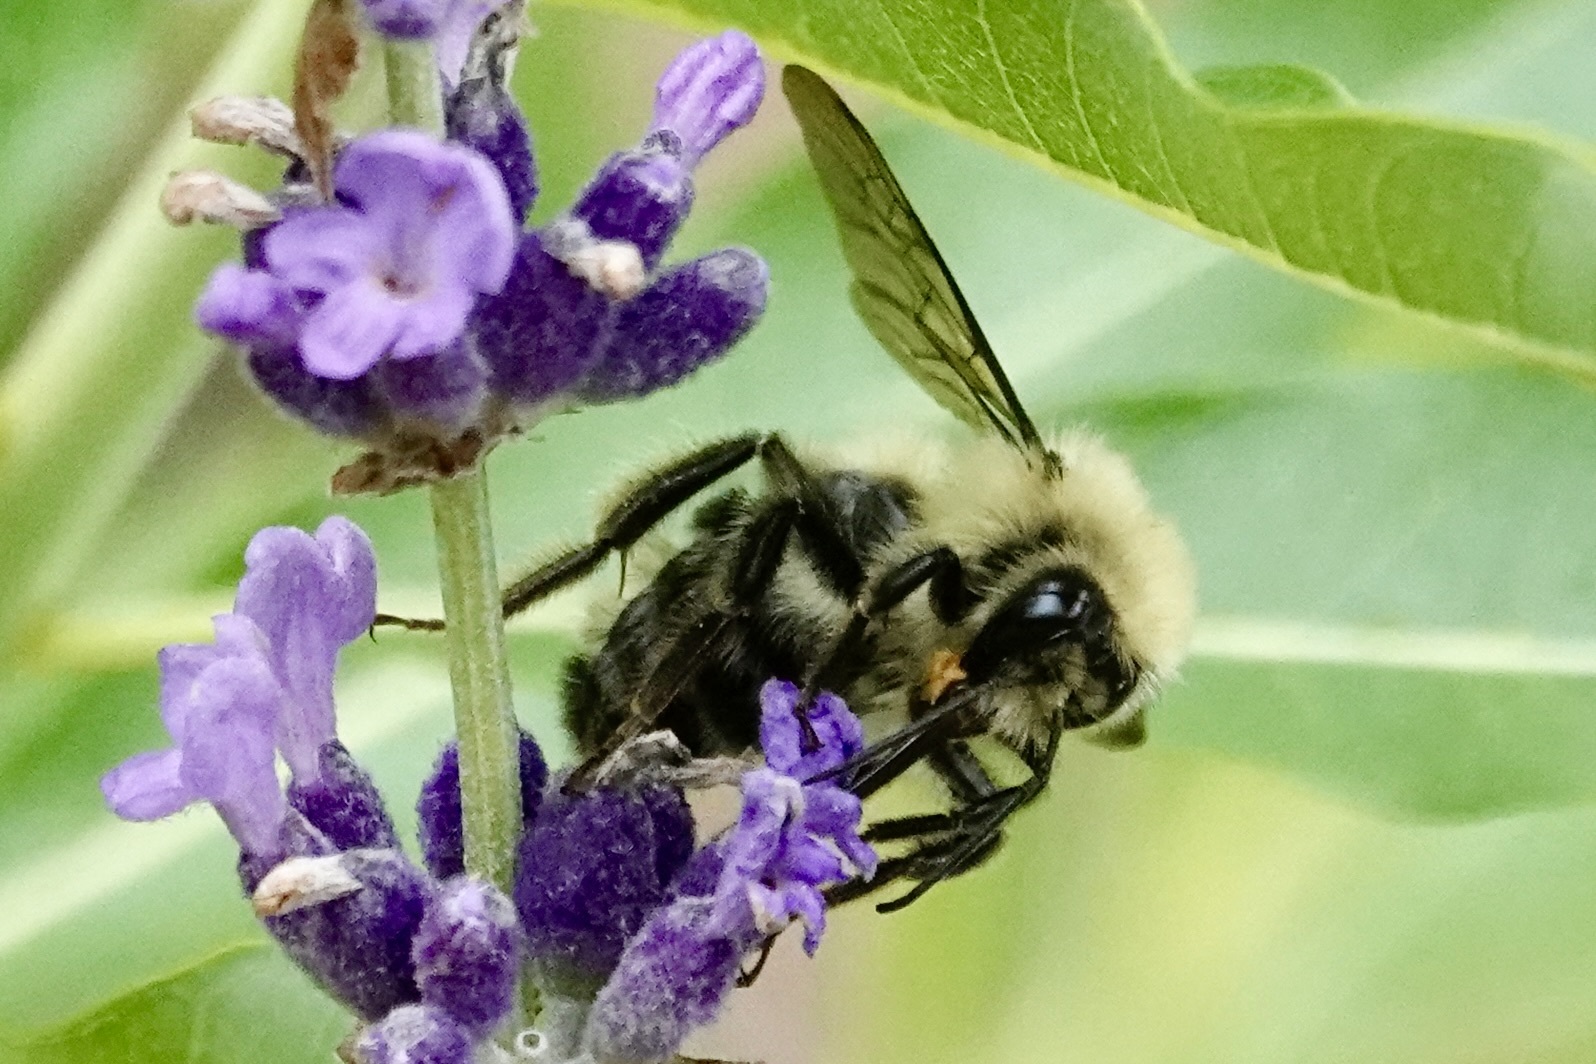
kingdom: Animalia
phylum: Arthropoda
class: Insecta
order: Hymenoptera
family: Apidae
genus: Bombus
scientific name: Bombus bimaculatus
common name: Two-spotted bumble bee
